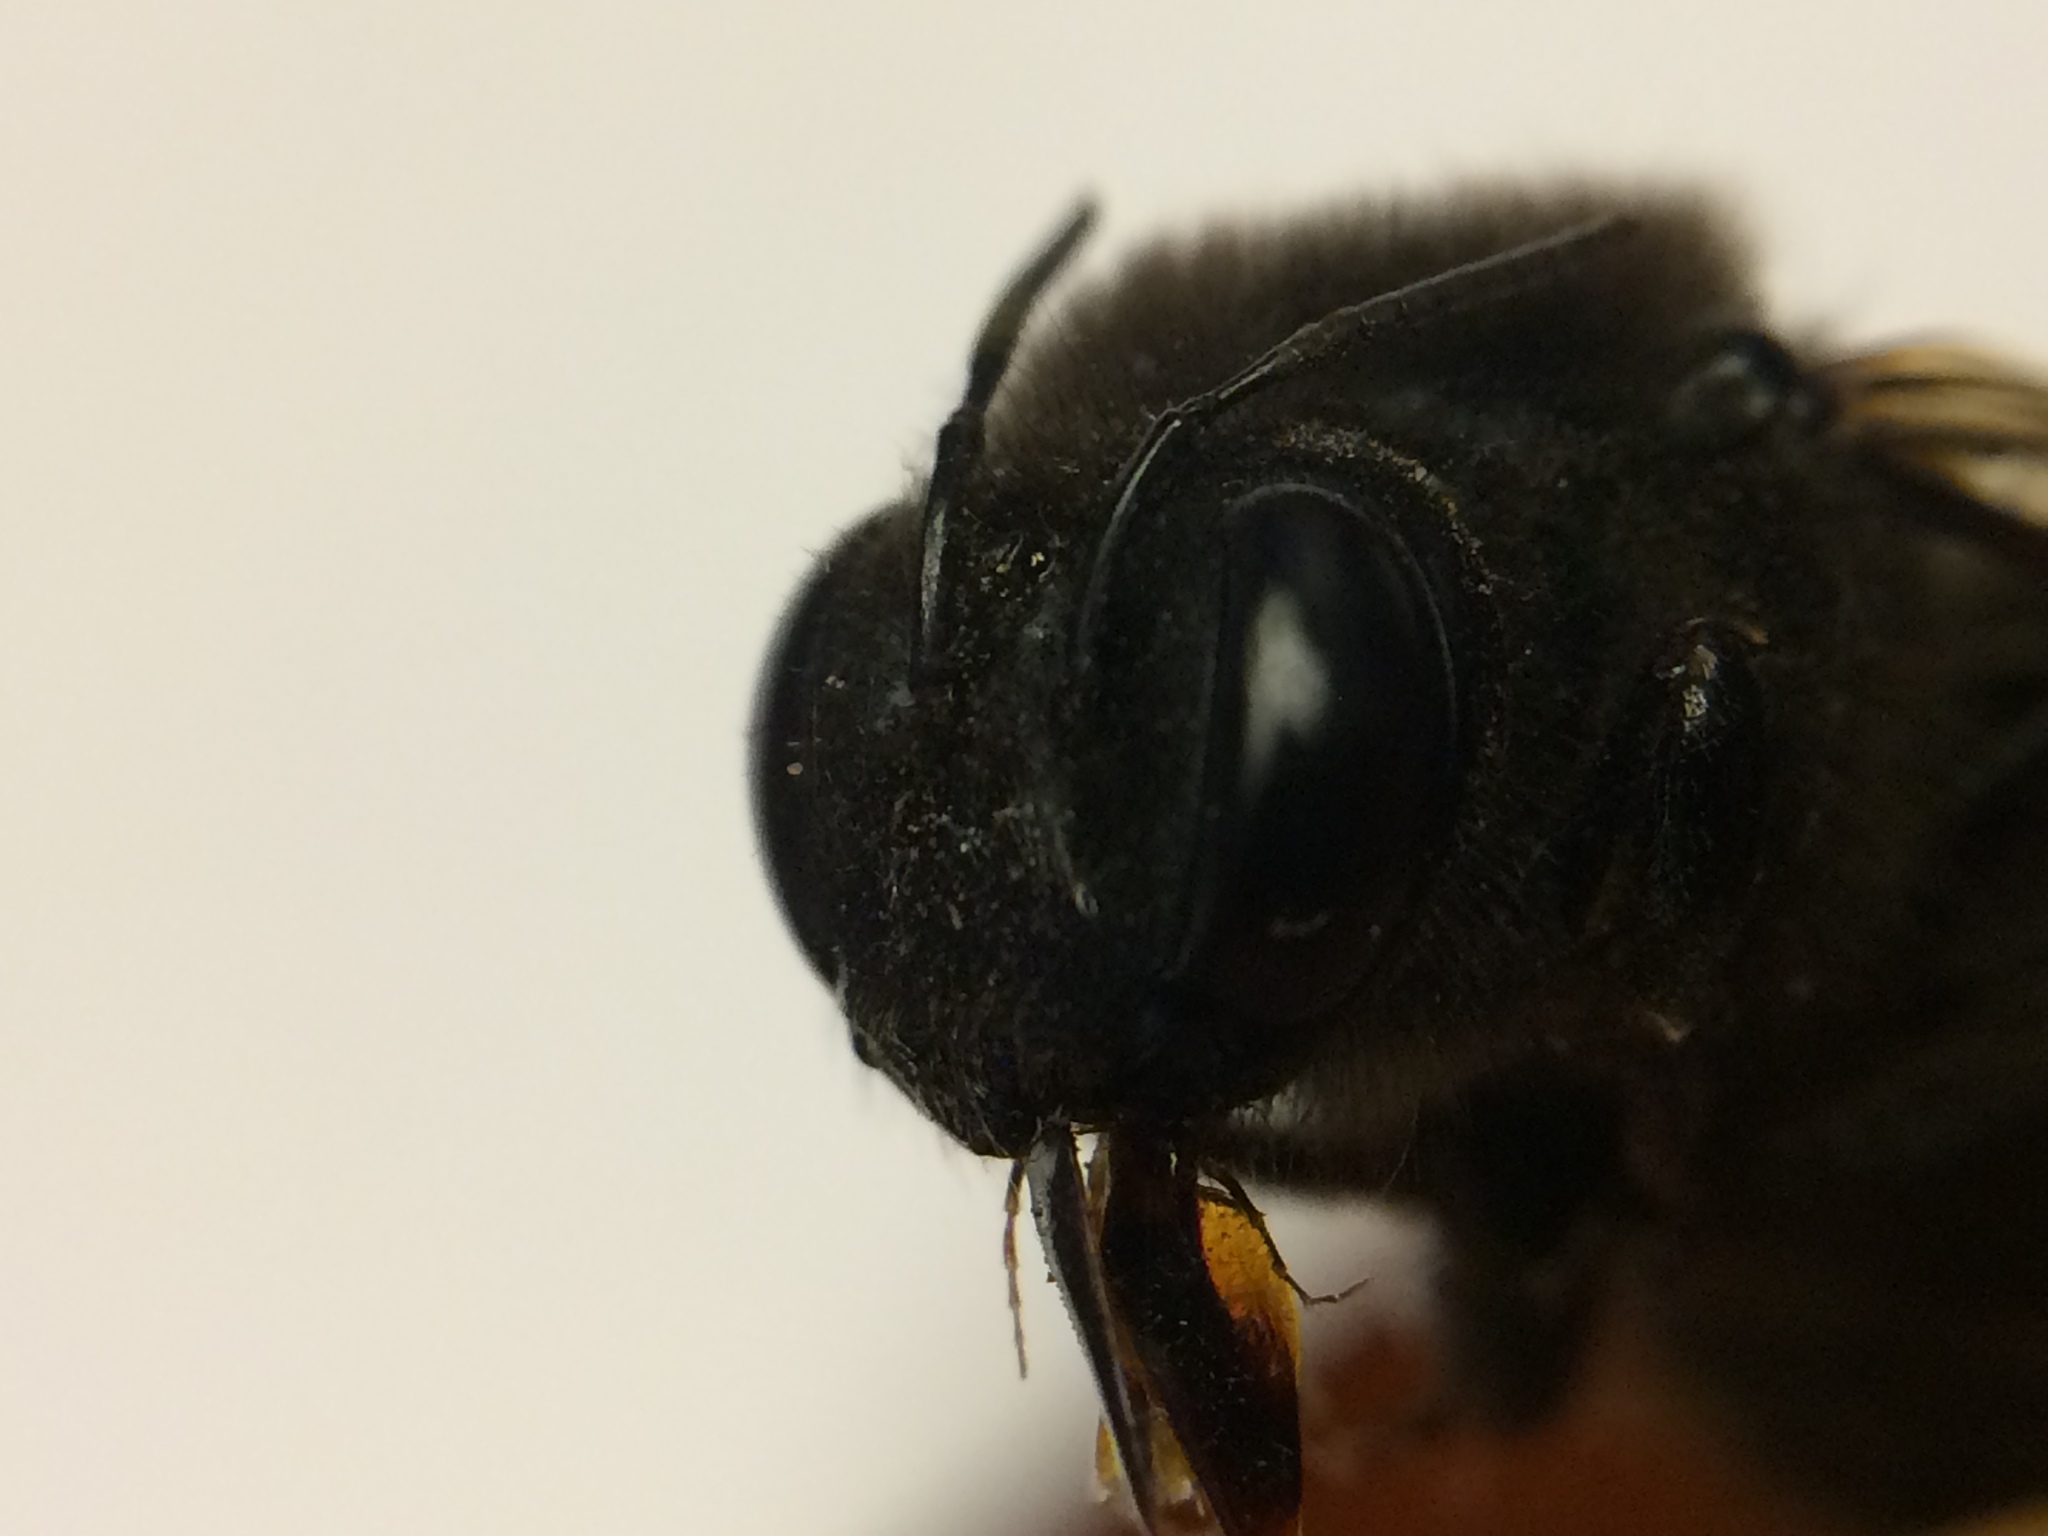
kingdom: Animalia
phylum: Arthropoda
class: Insecta
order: Hymenoptera
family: Apidae
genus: Xylocopa
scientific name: Xylocopa tabaniformis
